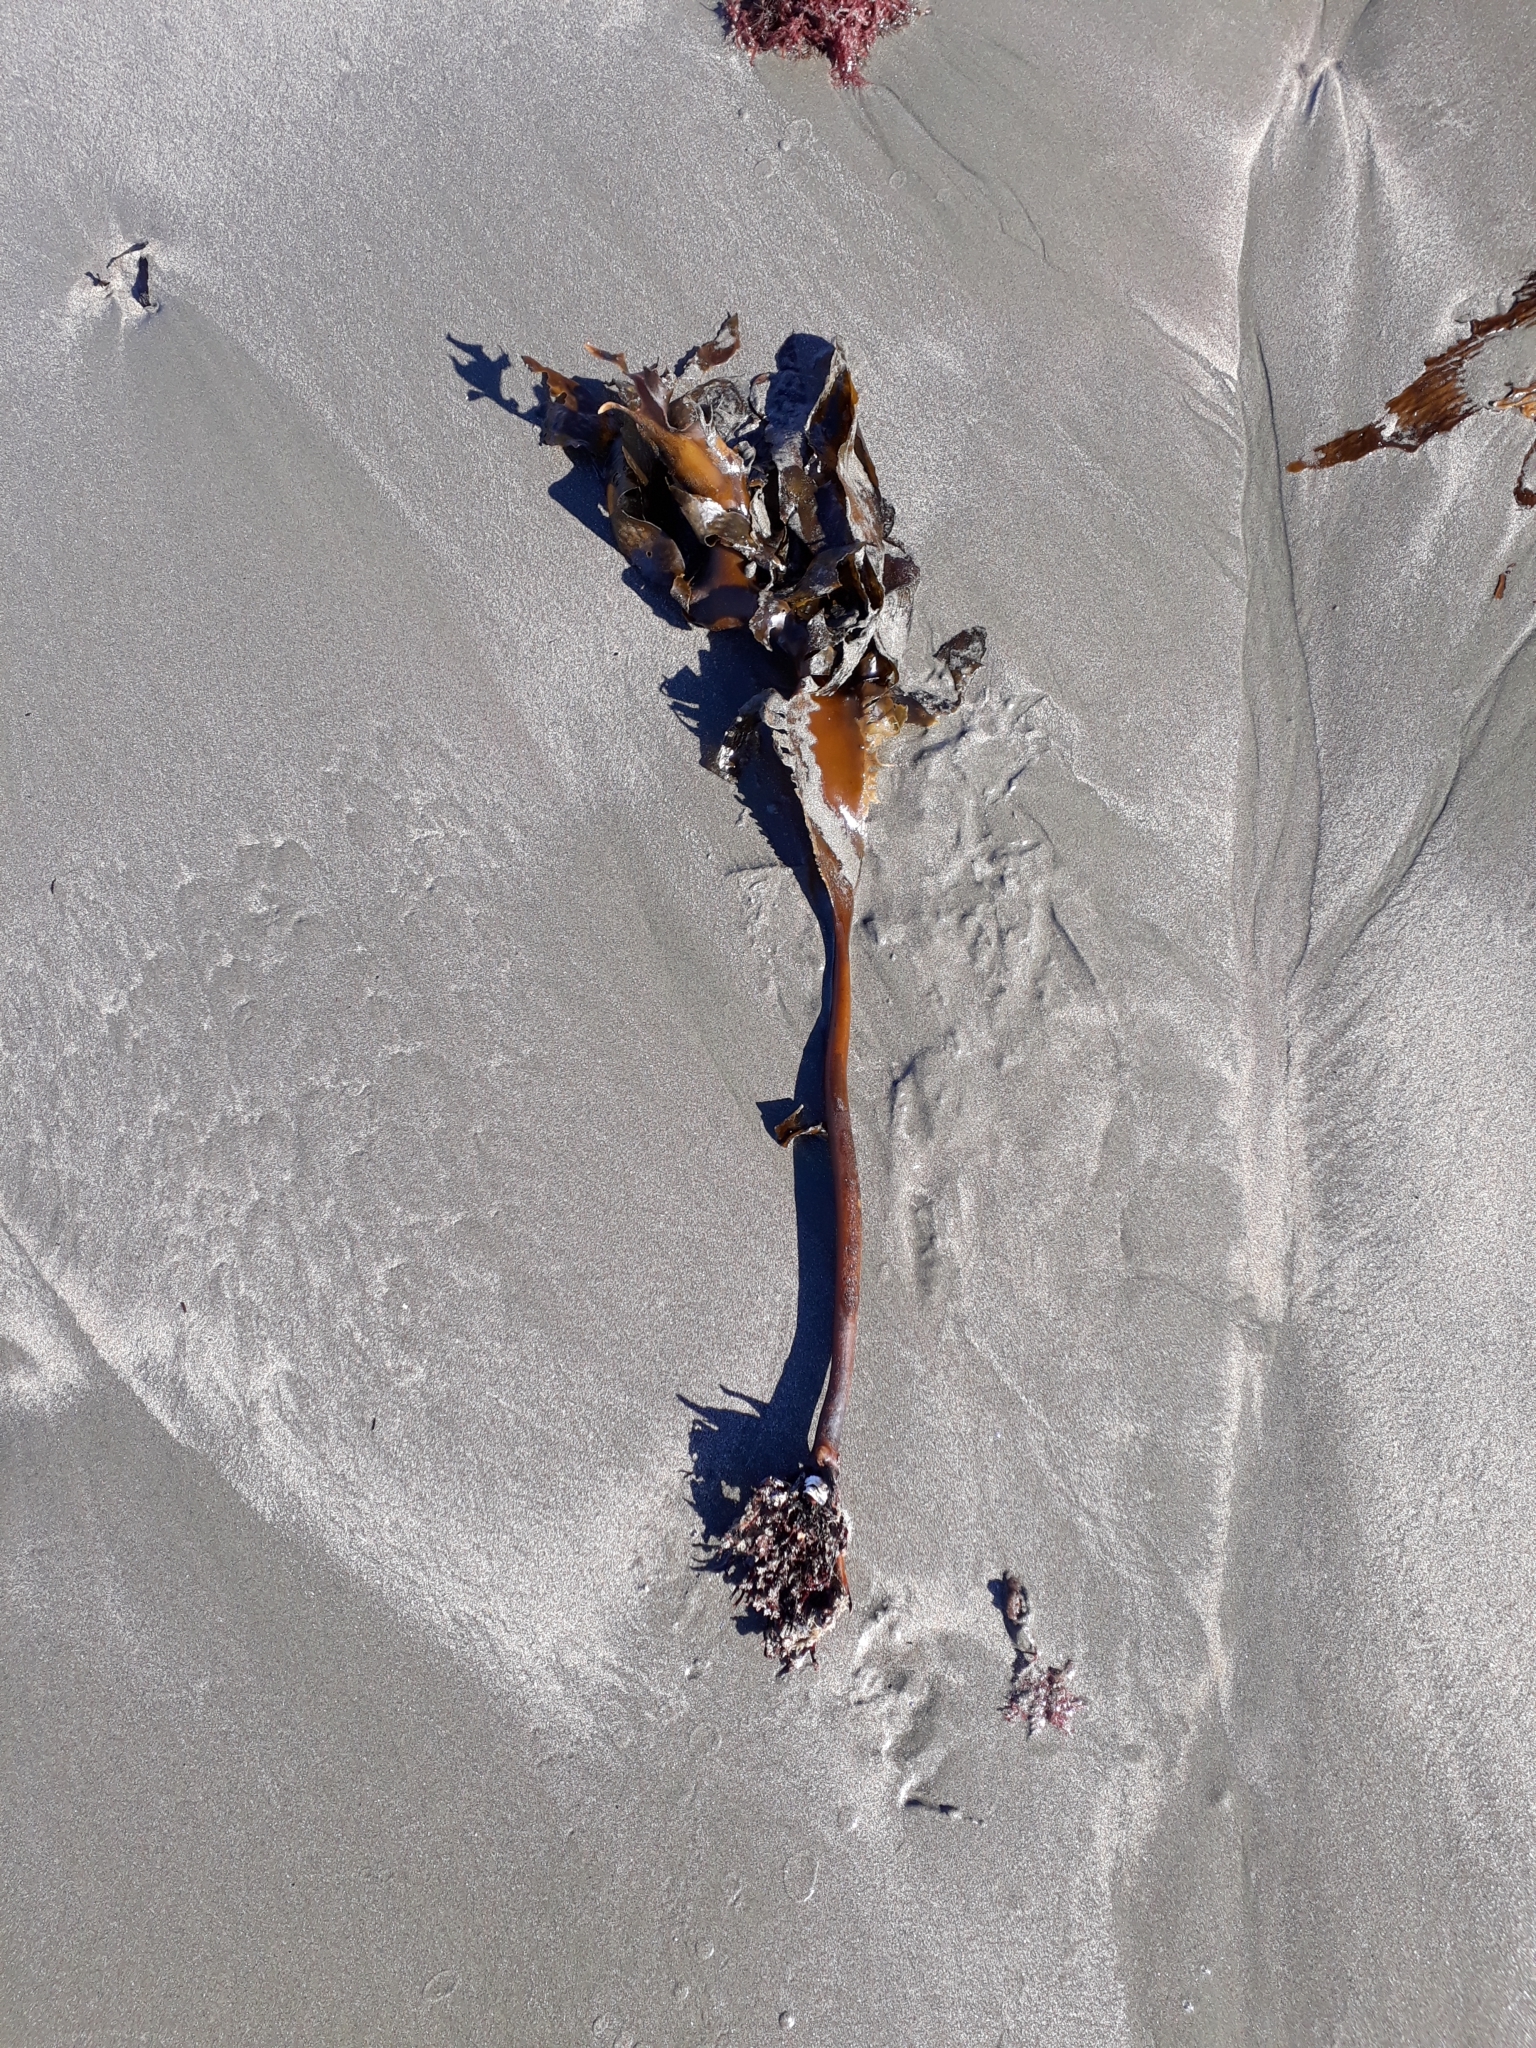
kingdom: Chromista
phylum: Ochrophyta
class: Phaeophyceae
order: Laminariales
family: Lessoniaceae
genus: Ecklonia
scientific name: Ecklonia radiata
